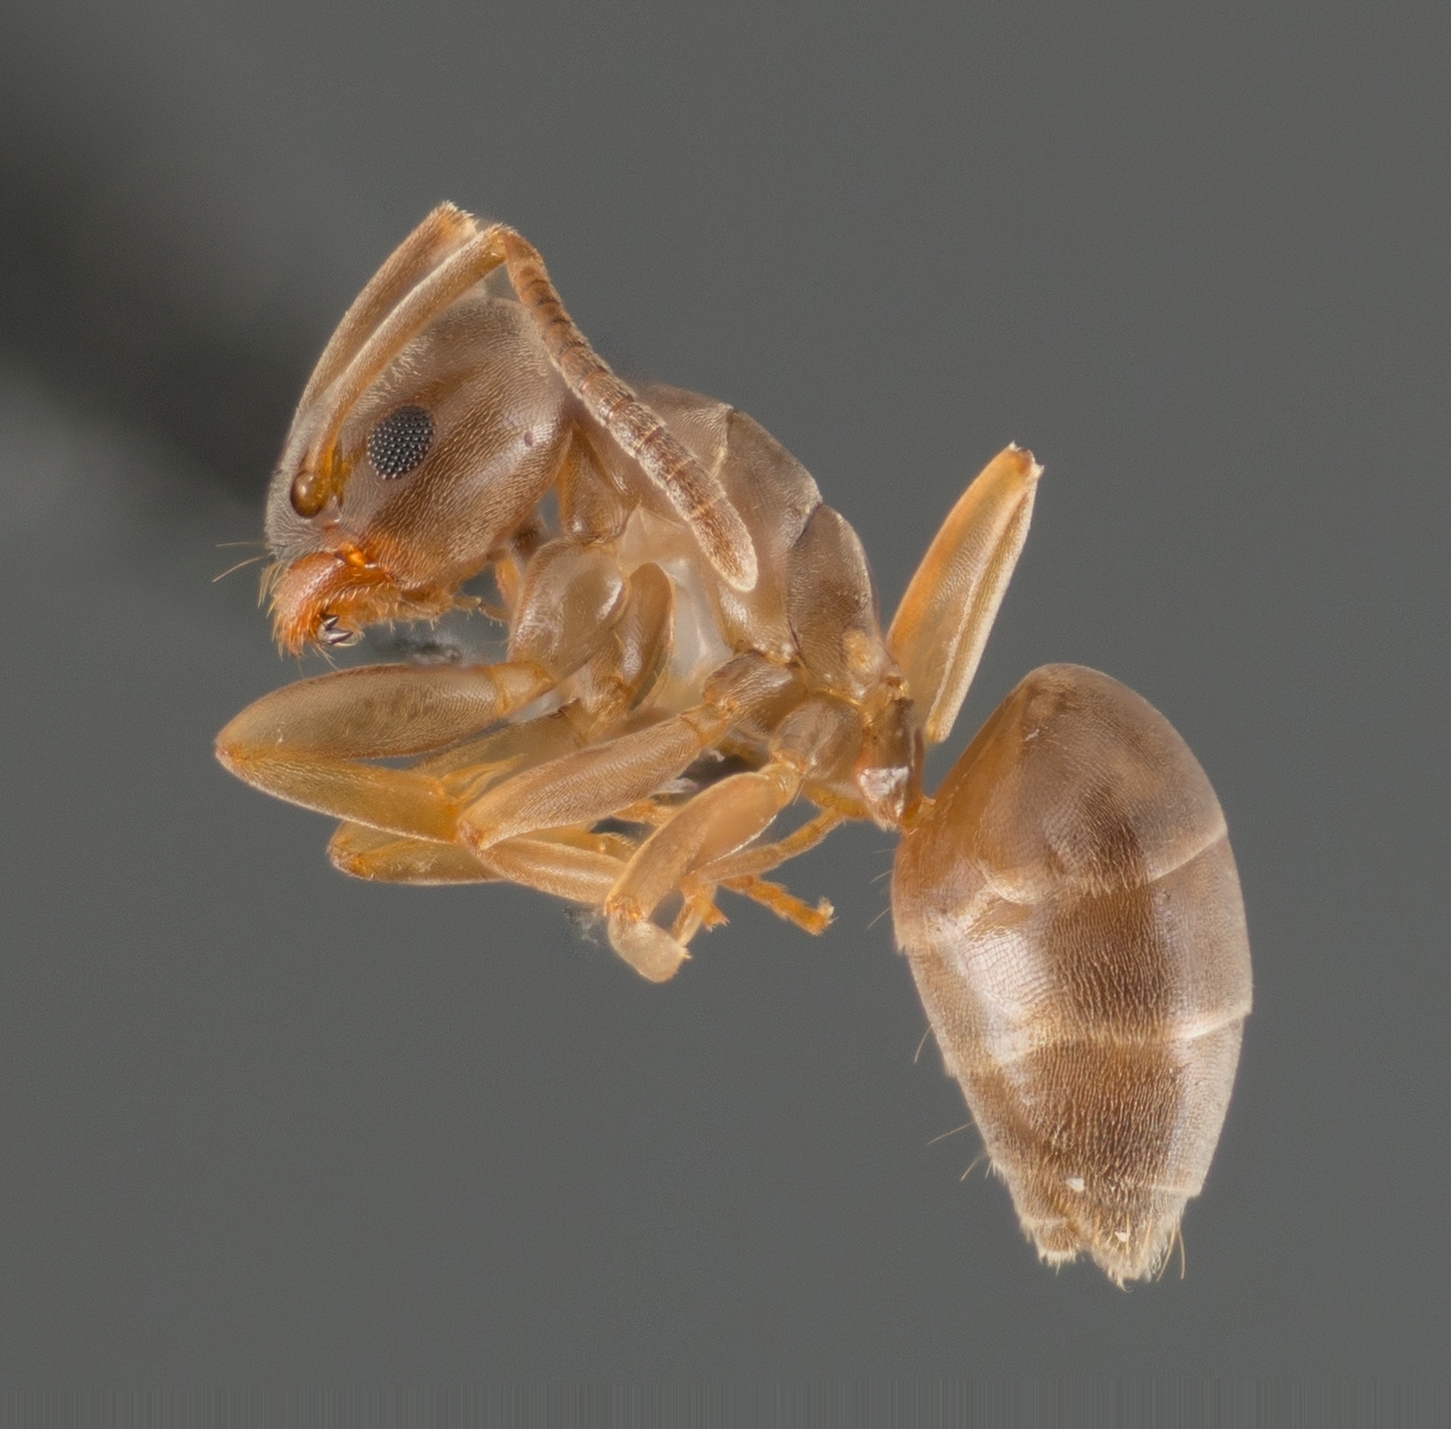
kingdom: Animalia
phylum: Arthropoda
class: Insecta
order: Hymenoptera
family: Formicidae
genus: Tapinoma
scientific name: Tapinoma sessile
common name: Odorous house ant
